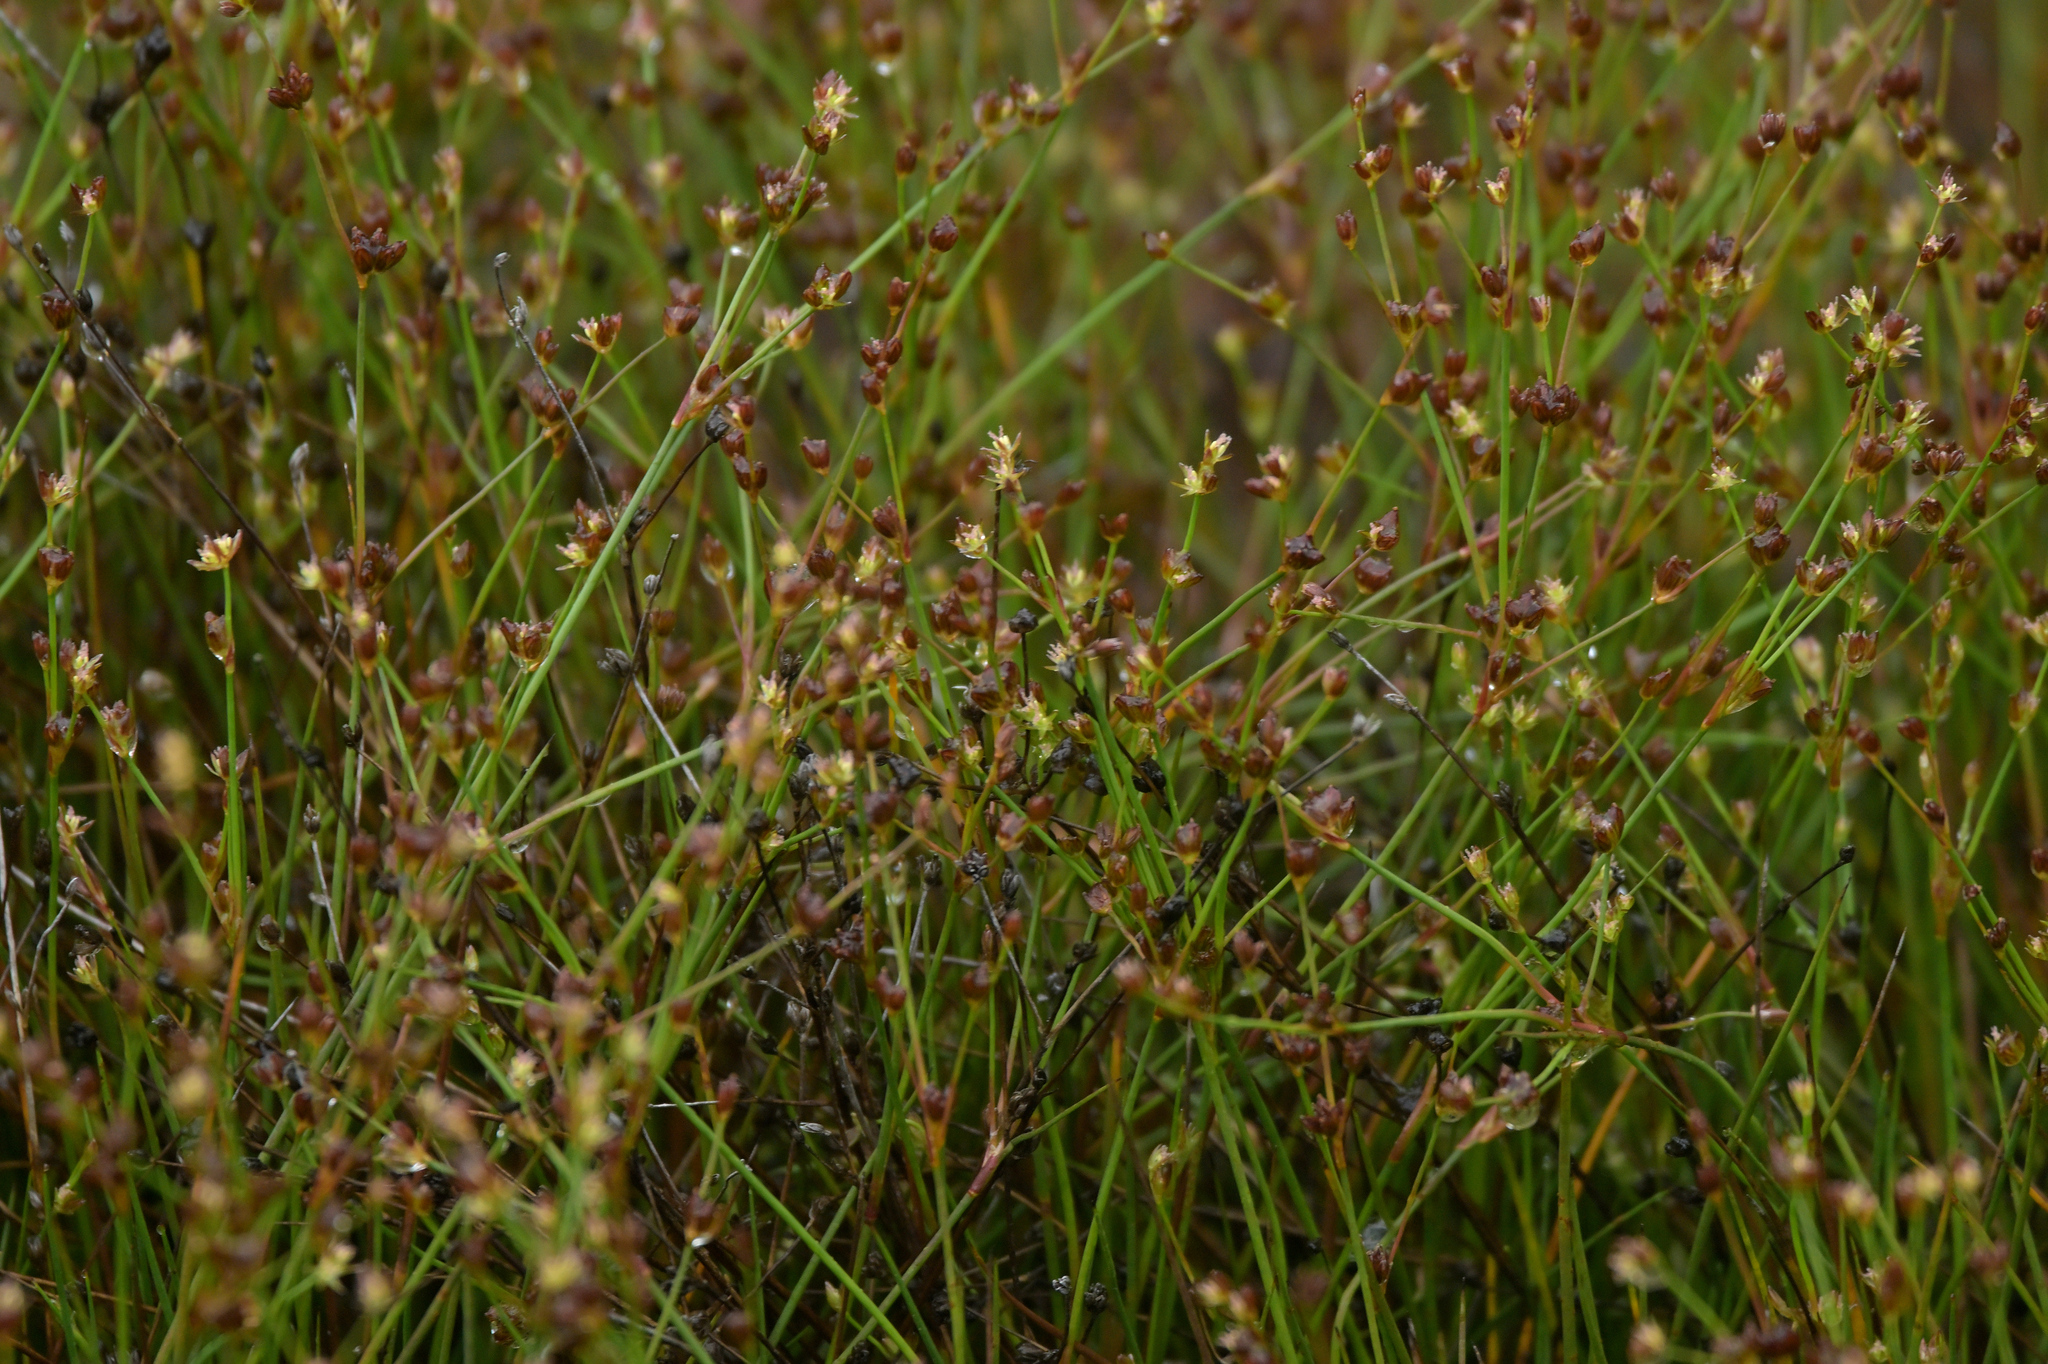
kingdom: Plantae
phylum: Tracheophyta
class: Liliopsida
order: Poales
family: Juncaceae
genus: Juncus
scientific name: Juncus bulbosus
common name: Bulbous rush
